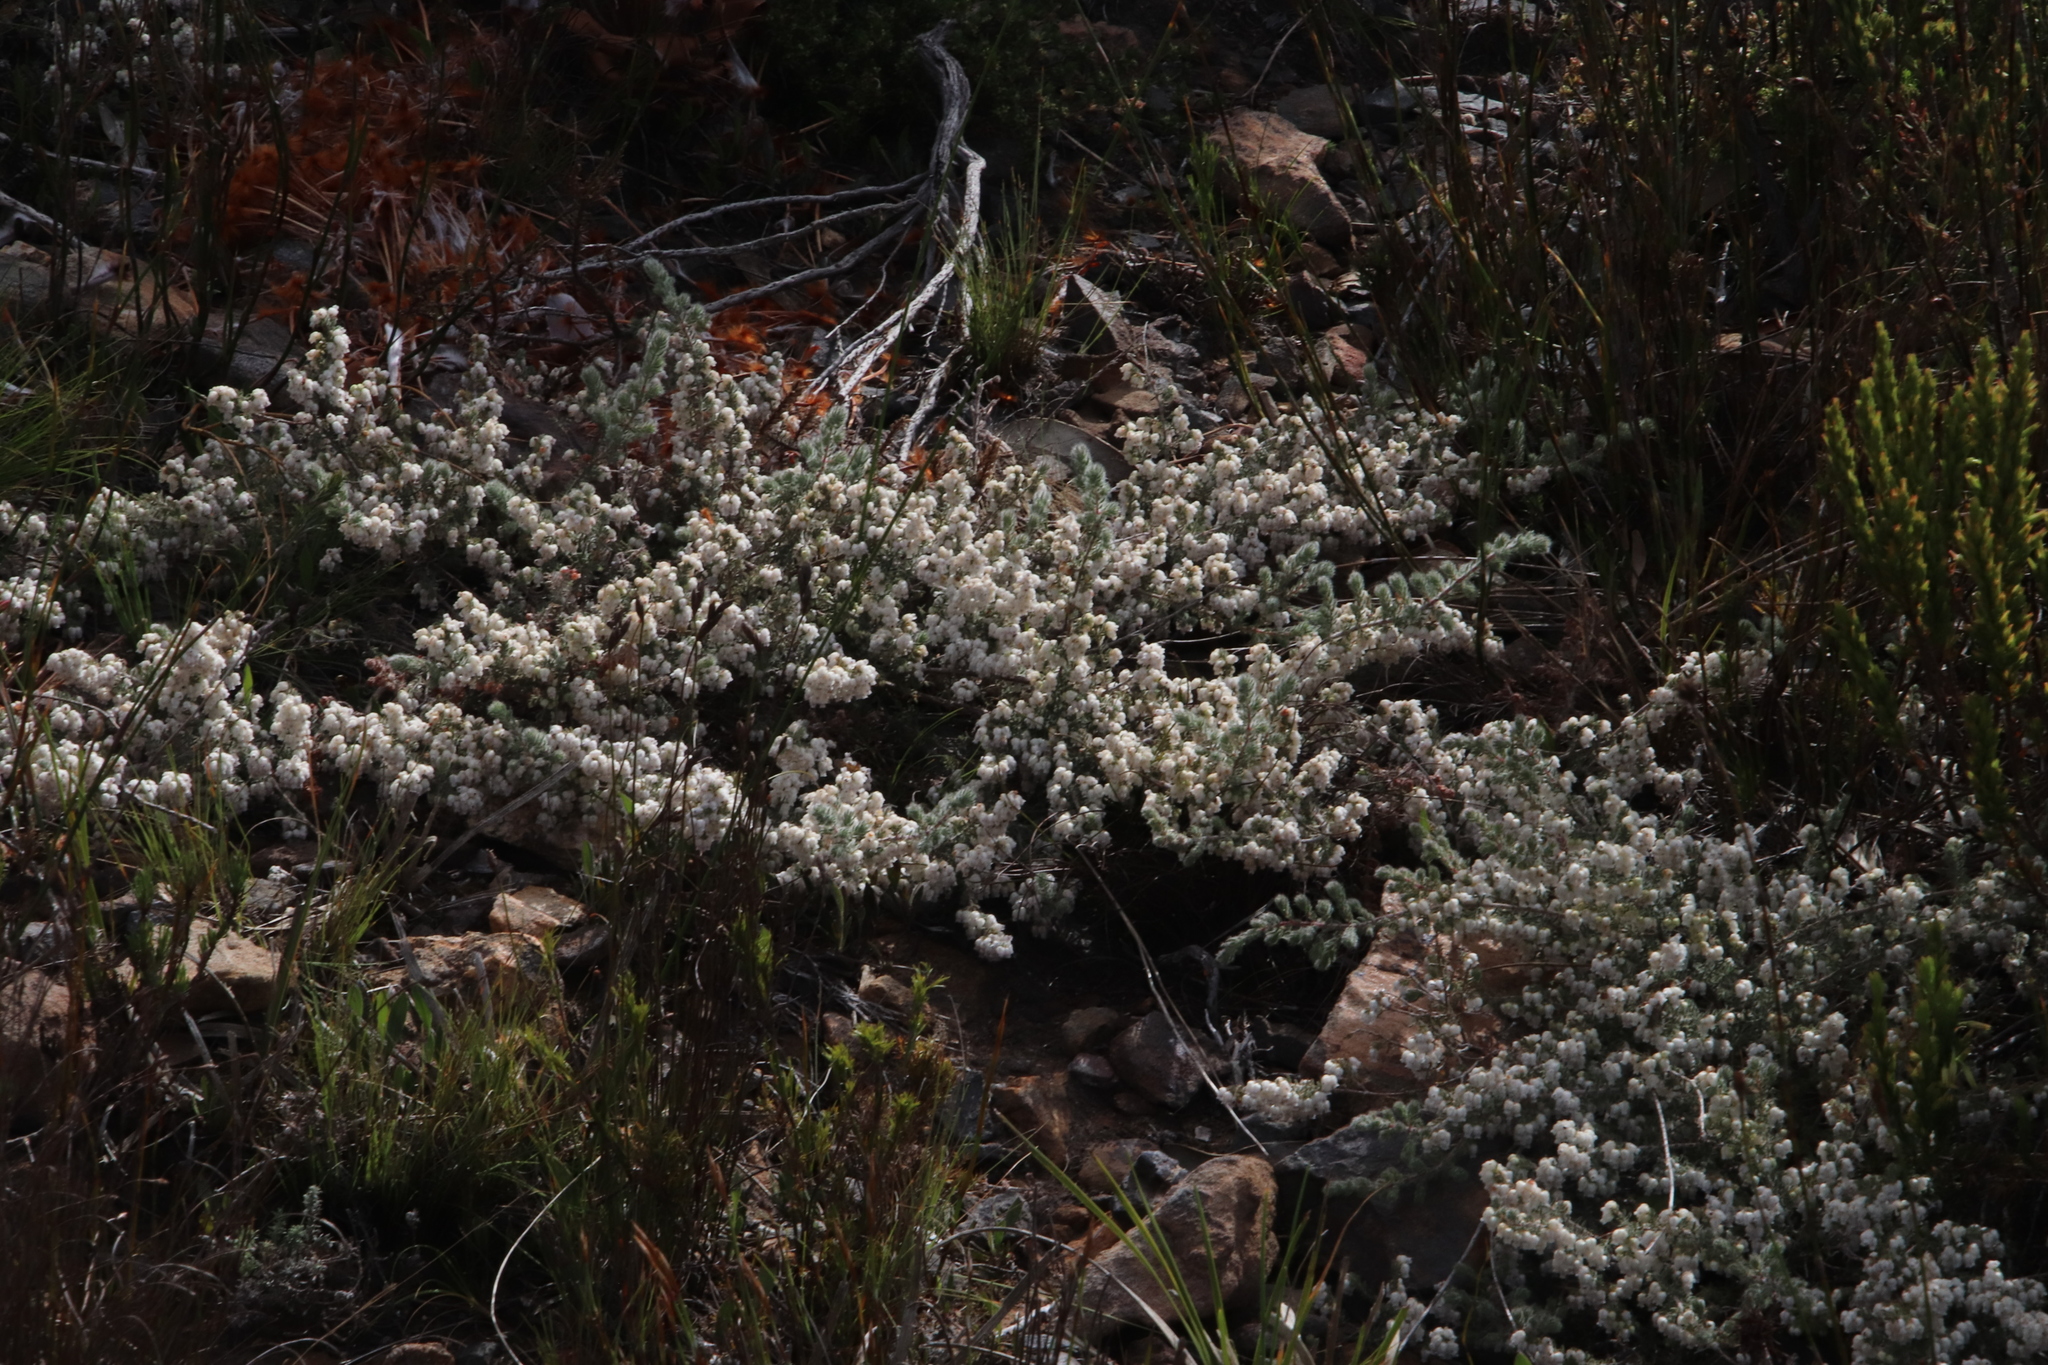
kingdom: Plantae
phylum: Tracheophyta
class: Magnoliopsida
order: Ericales
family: Ericaceae
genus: Erica
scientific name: Erica totta
